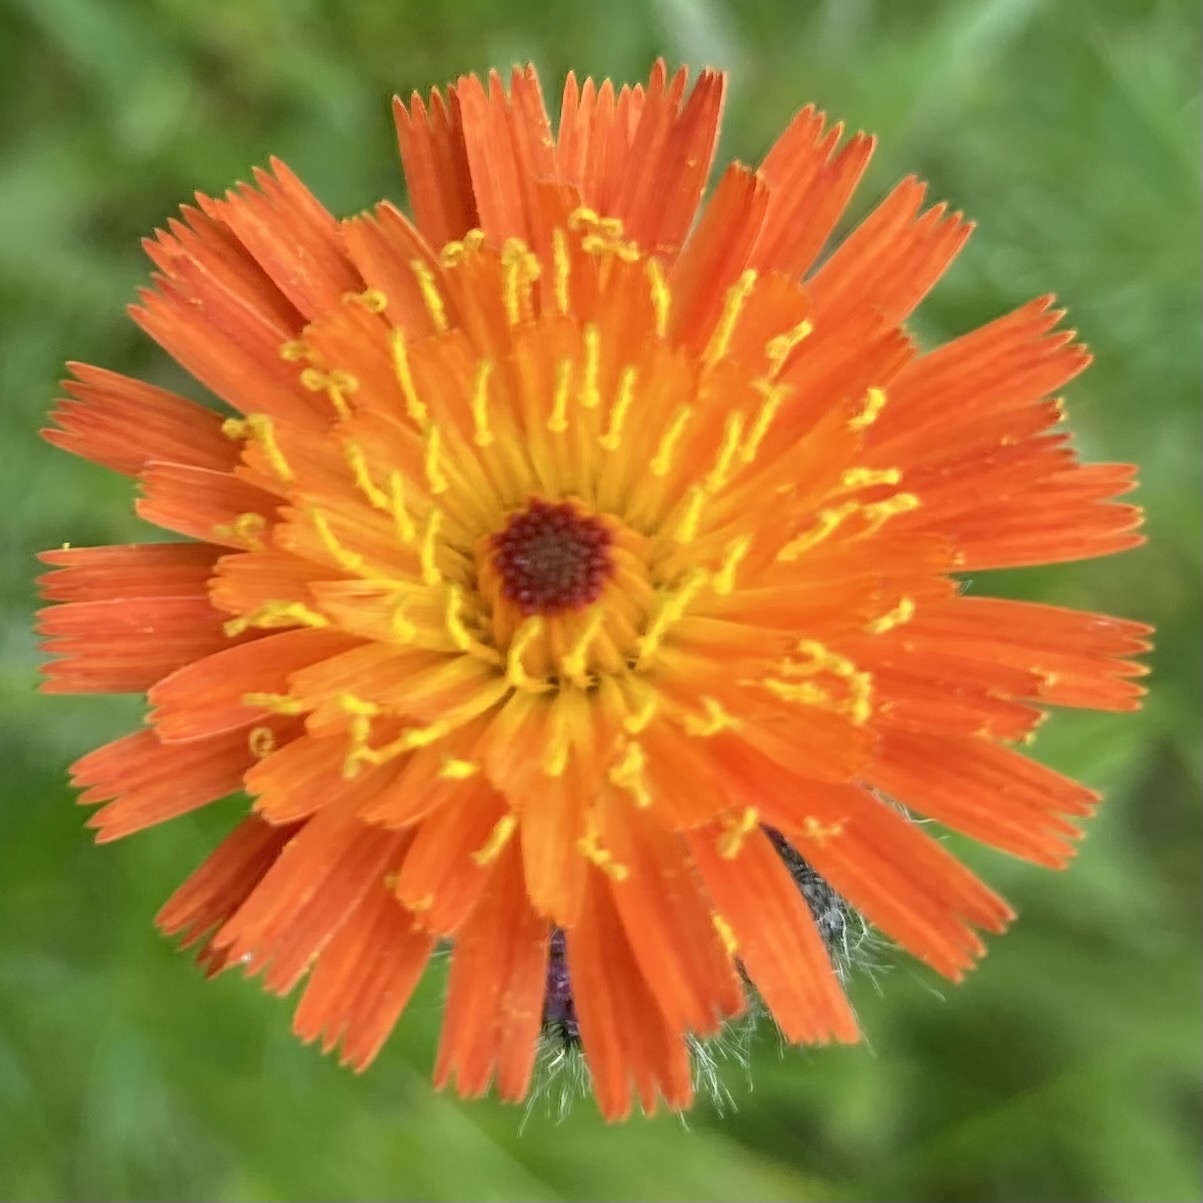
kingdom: Plantae
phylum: Tracheophyta
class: Magnoliopsida
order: Asterales
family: Asteraceae
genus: Pilosella
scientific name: Pilosella aurantiaca
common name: Fox-and-cubs
